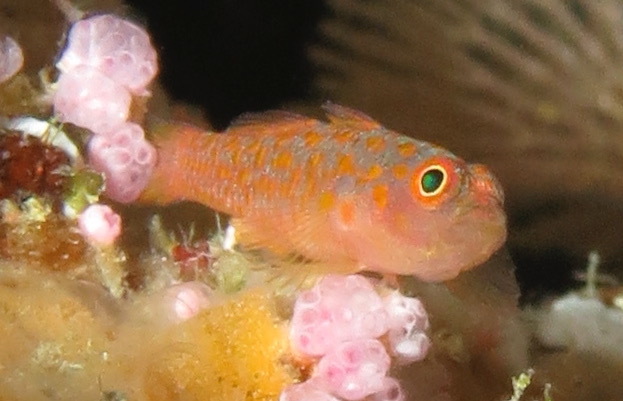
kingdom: Animalia
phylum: Chordata
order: Perciformes
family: Gobiidae
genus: Trimma
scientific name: Trimma annosum
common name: Grey-bearded pygmygoby
